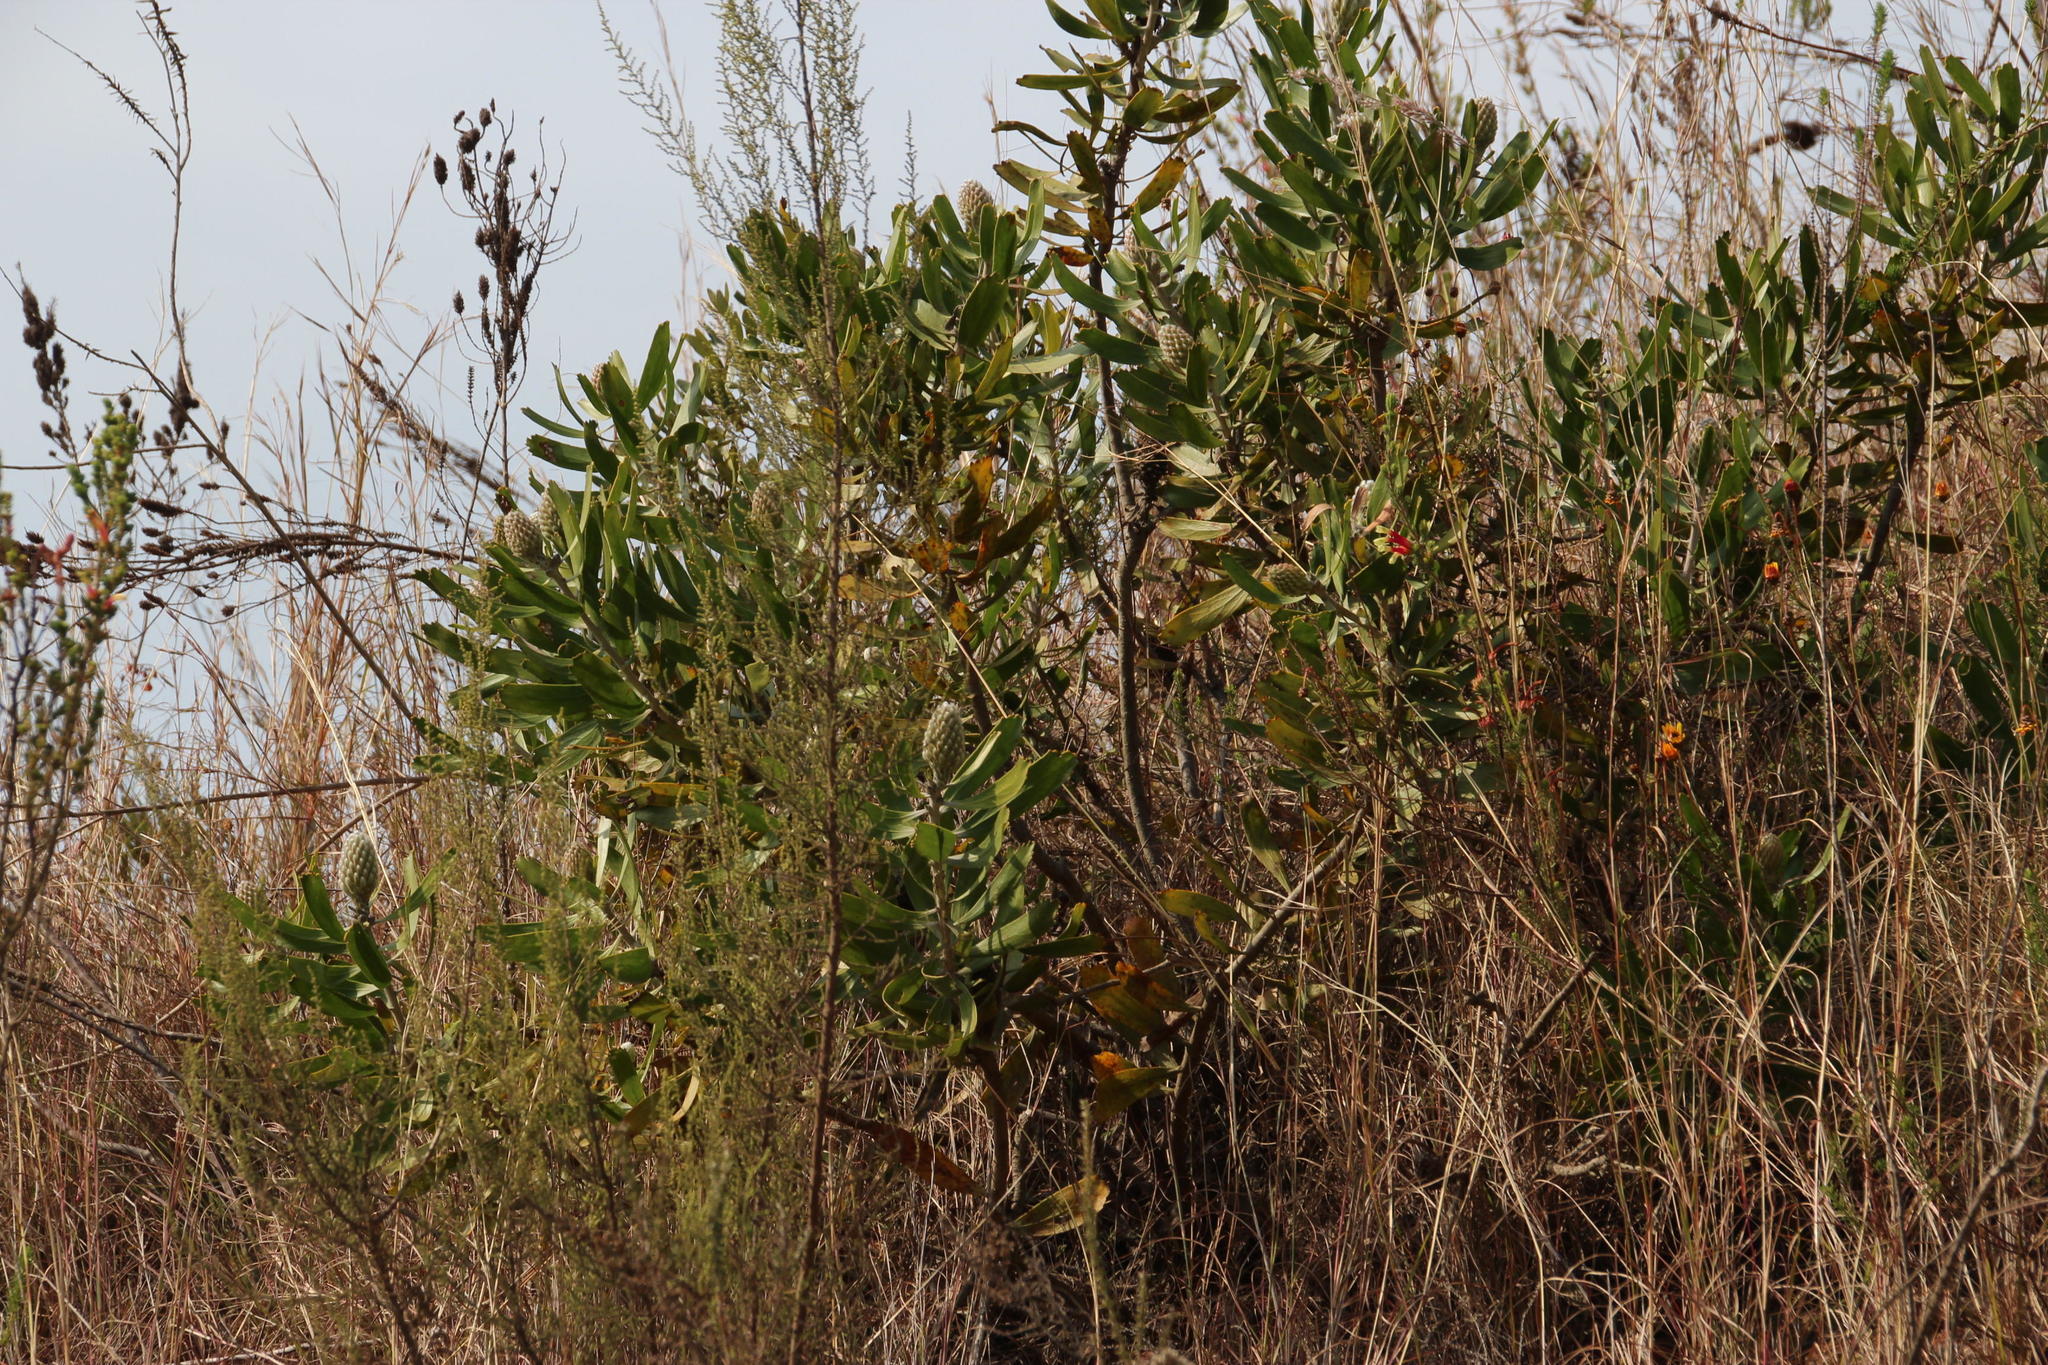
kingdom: Plantae
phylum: Tracheophyta
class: Magnoliopsida
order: Proteales
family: Proteaceae
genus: Leucospermum
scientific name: Leucospermum cuneiforme
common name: Common pincushion
